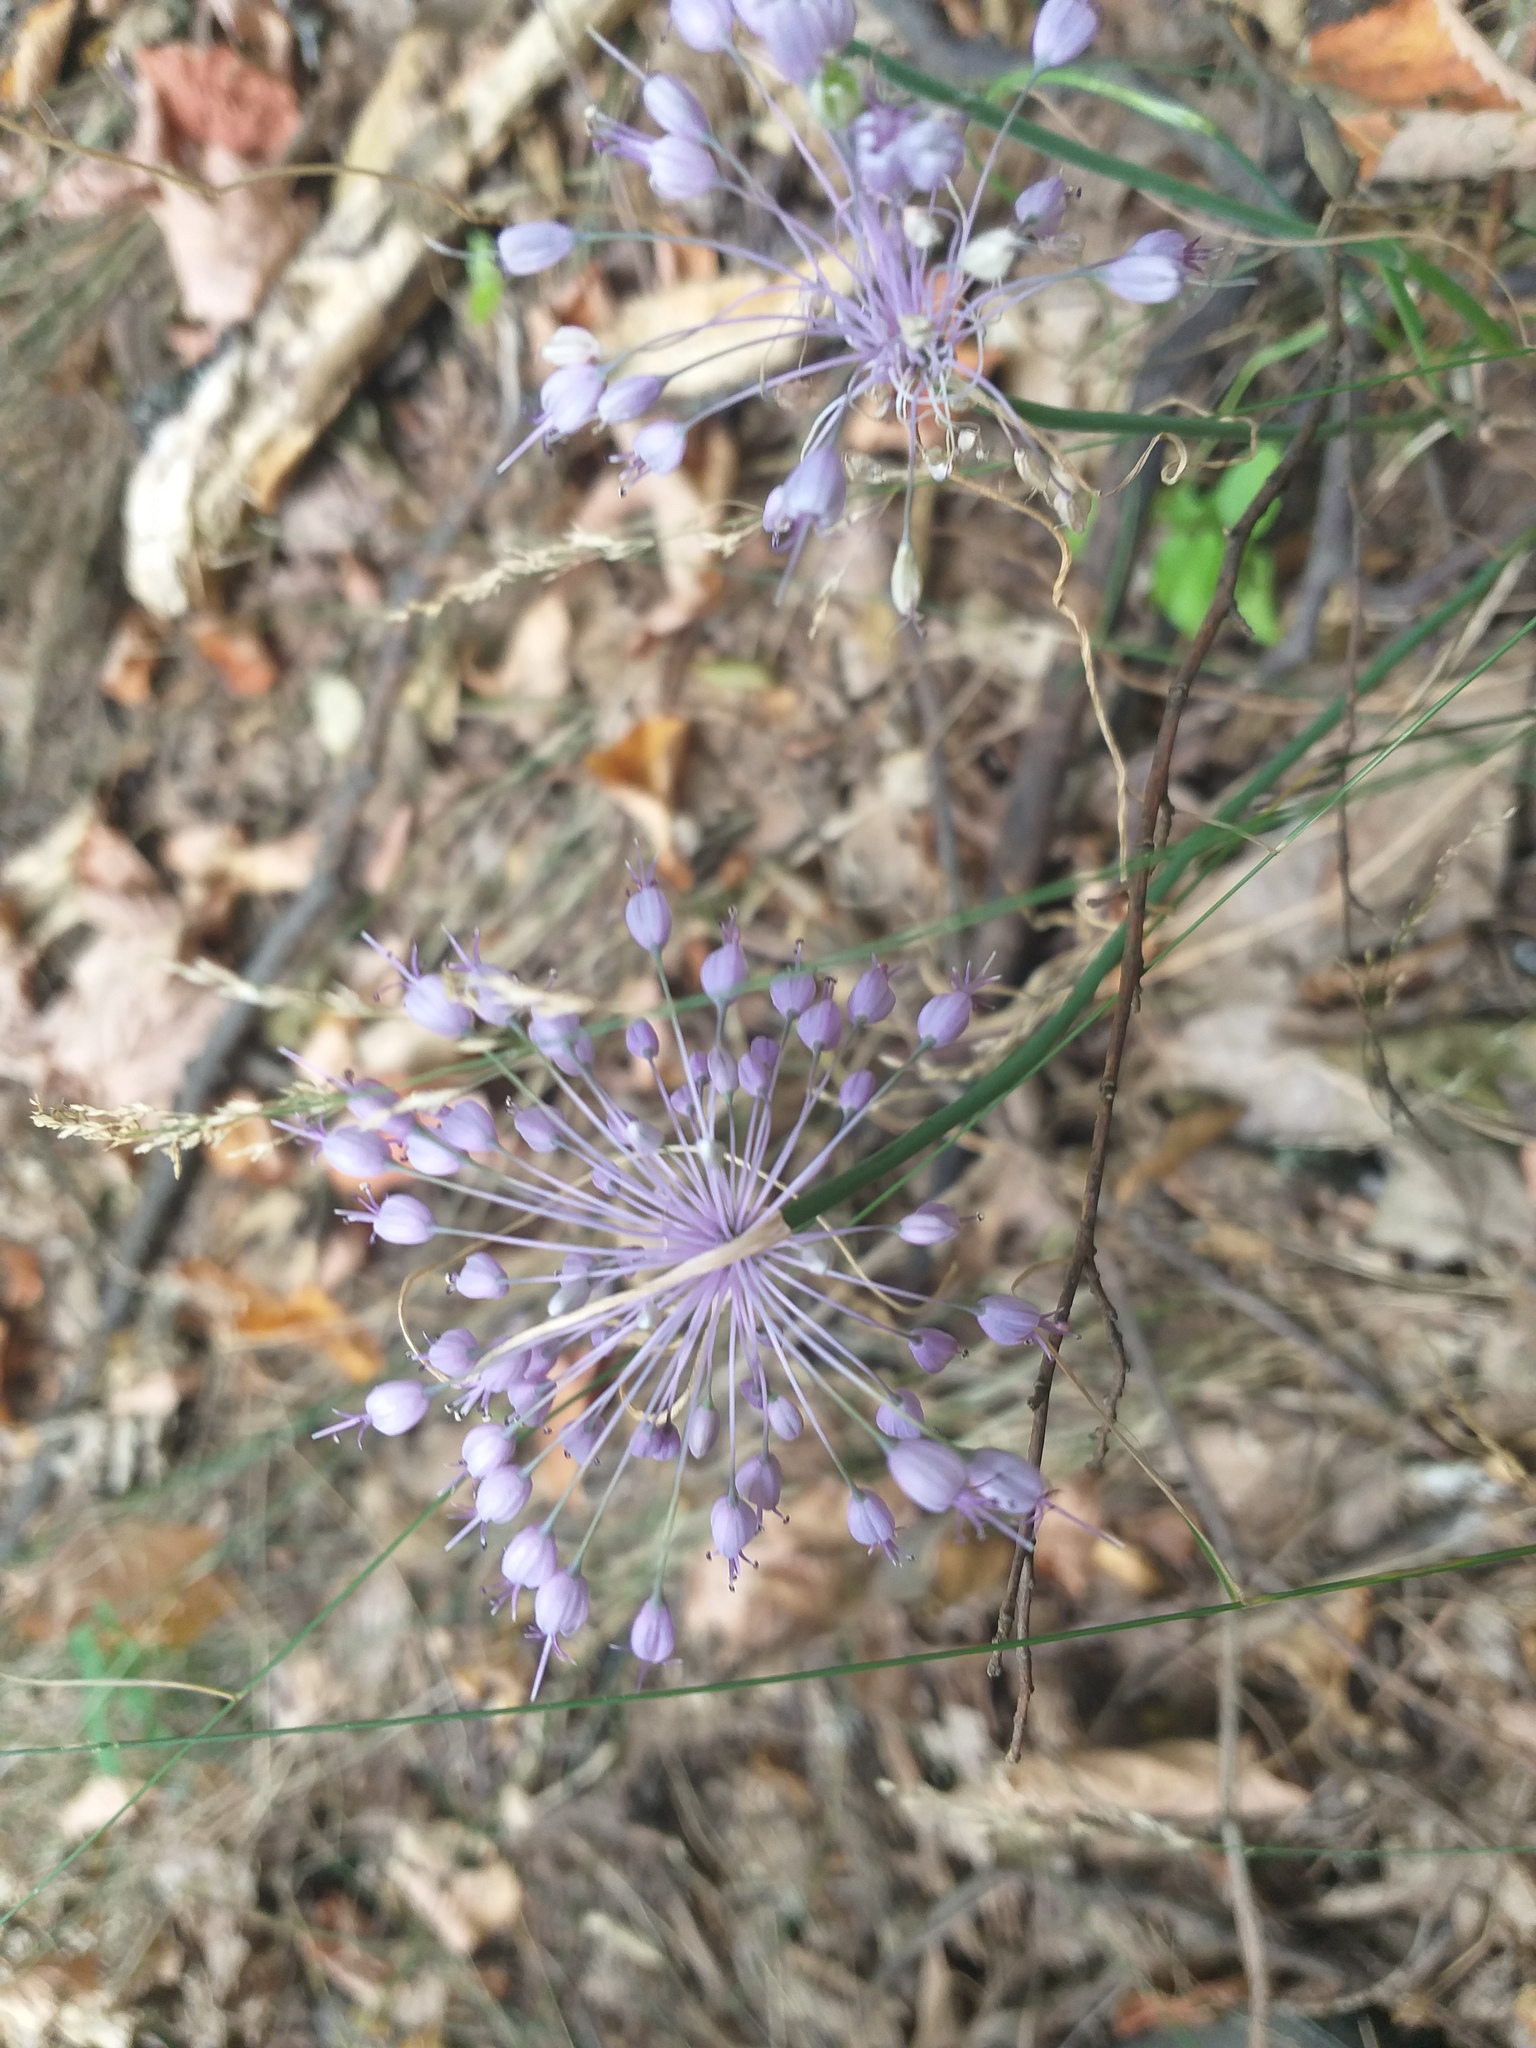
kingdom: Plantae
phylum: Tracheophyta
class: Liliopsida
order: Asparagales
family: Amaryllidaceae
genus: Allium
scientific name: Allium carinatum
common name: Keeled garlic
